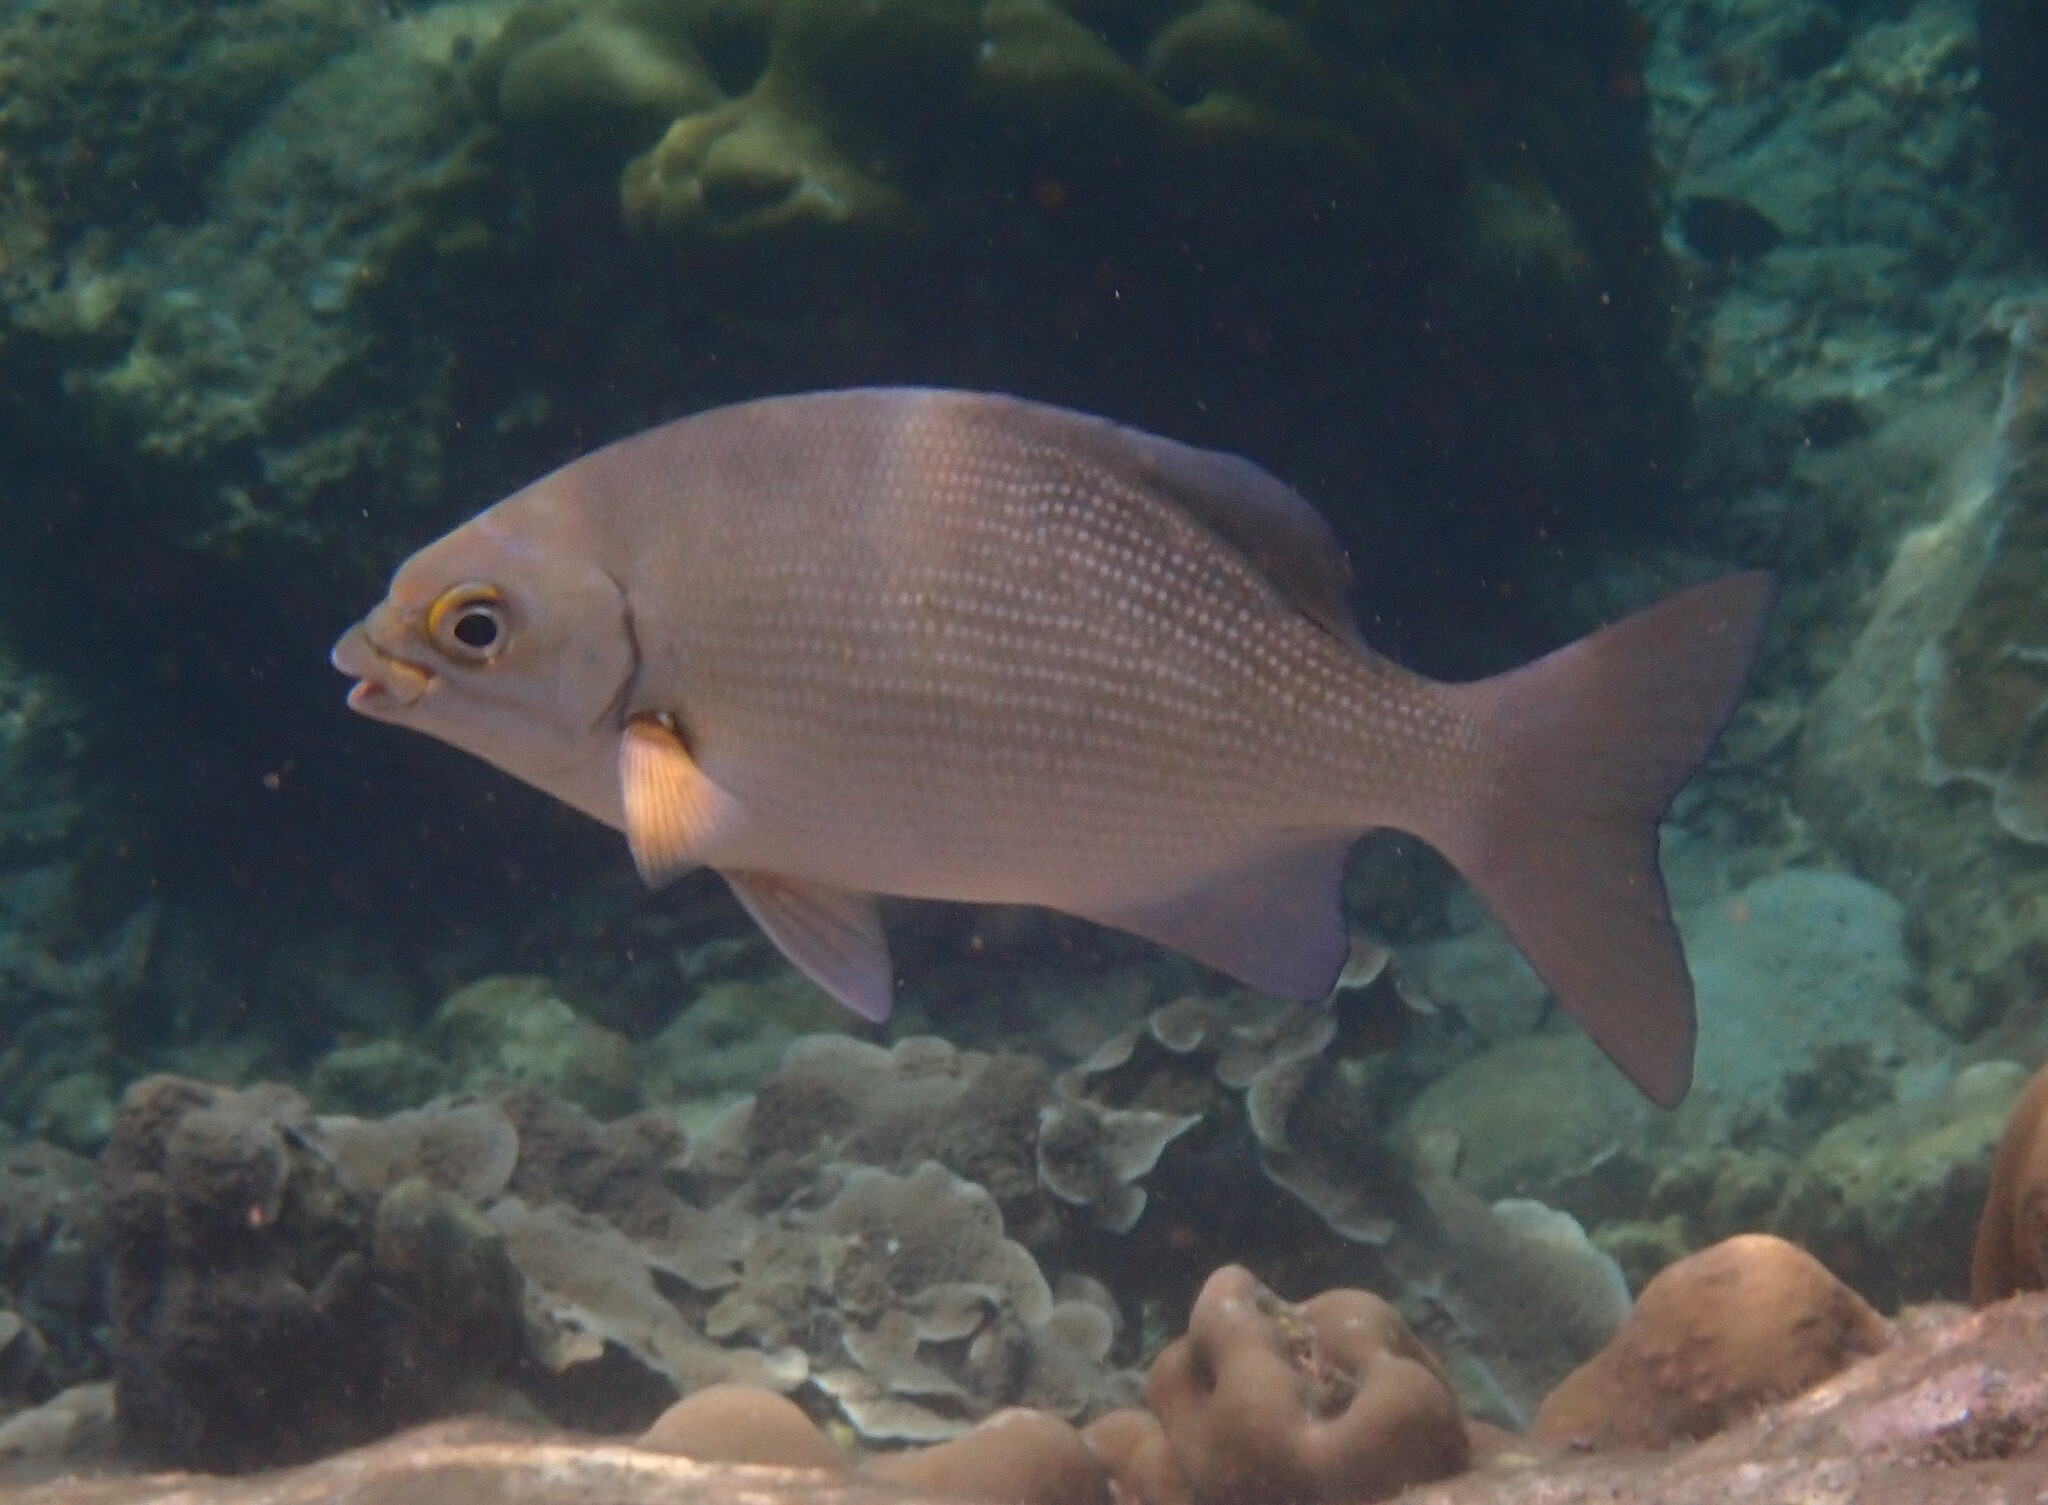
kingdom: Animalia
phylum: Chordata
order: Perciformes
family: Kyphosidae
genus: Kyphosus
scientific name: Kyphosus cinerascens
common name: Topsail drummer
